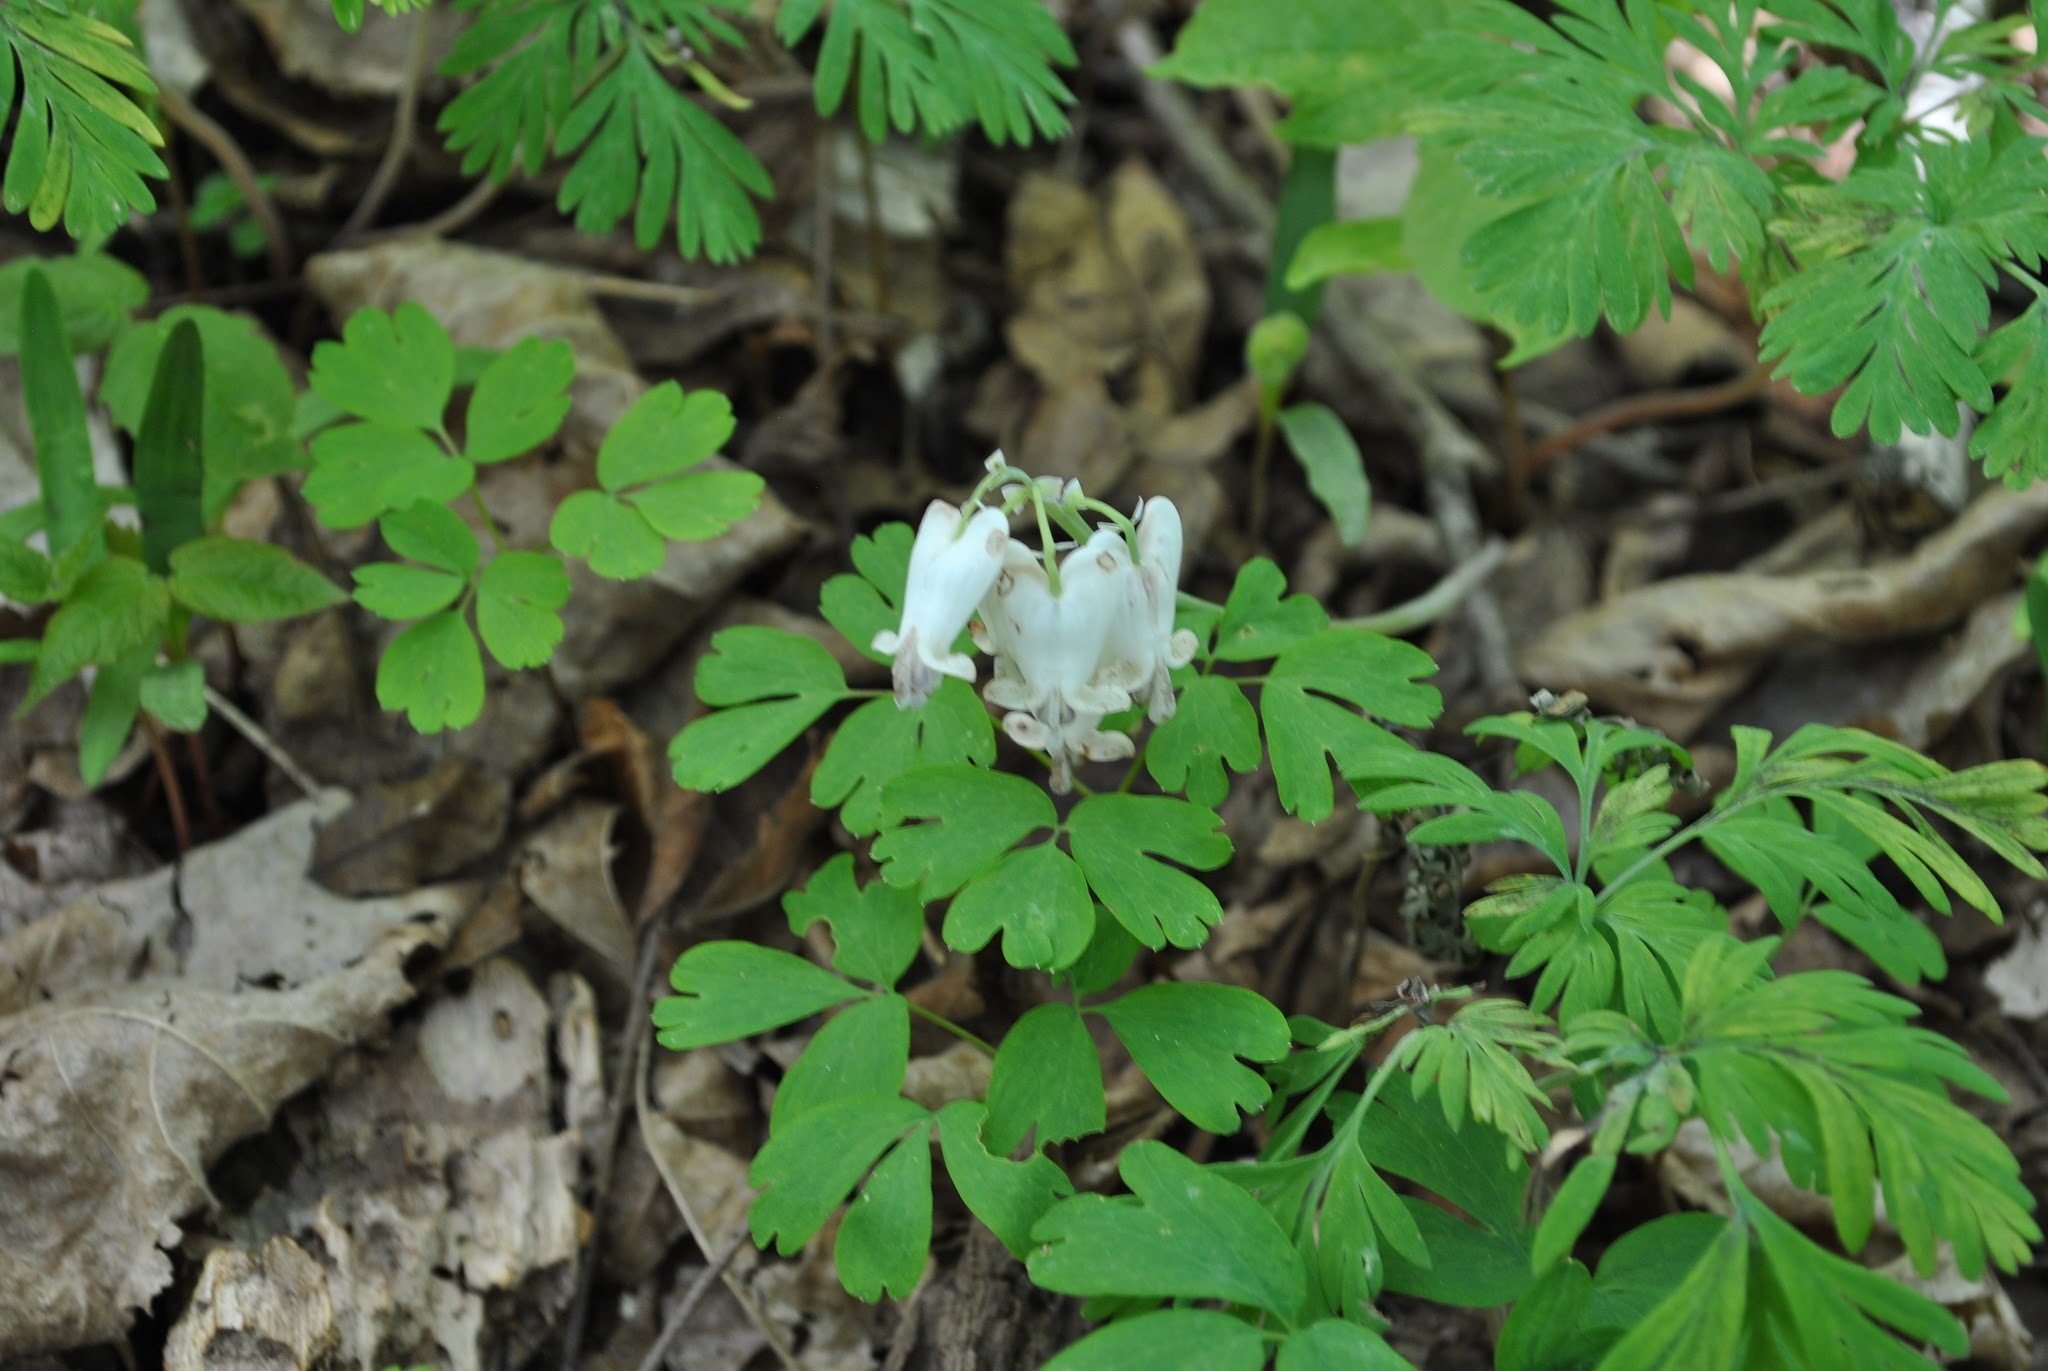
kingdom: Plantae
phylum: Tracheophyta
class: Magnoliopsida
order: Ranunculales
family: Papaveraceae
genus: Dicentra
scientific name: Dicentra canadensis
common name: Squirrel-corn
